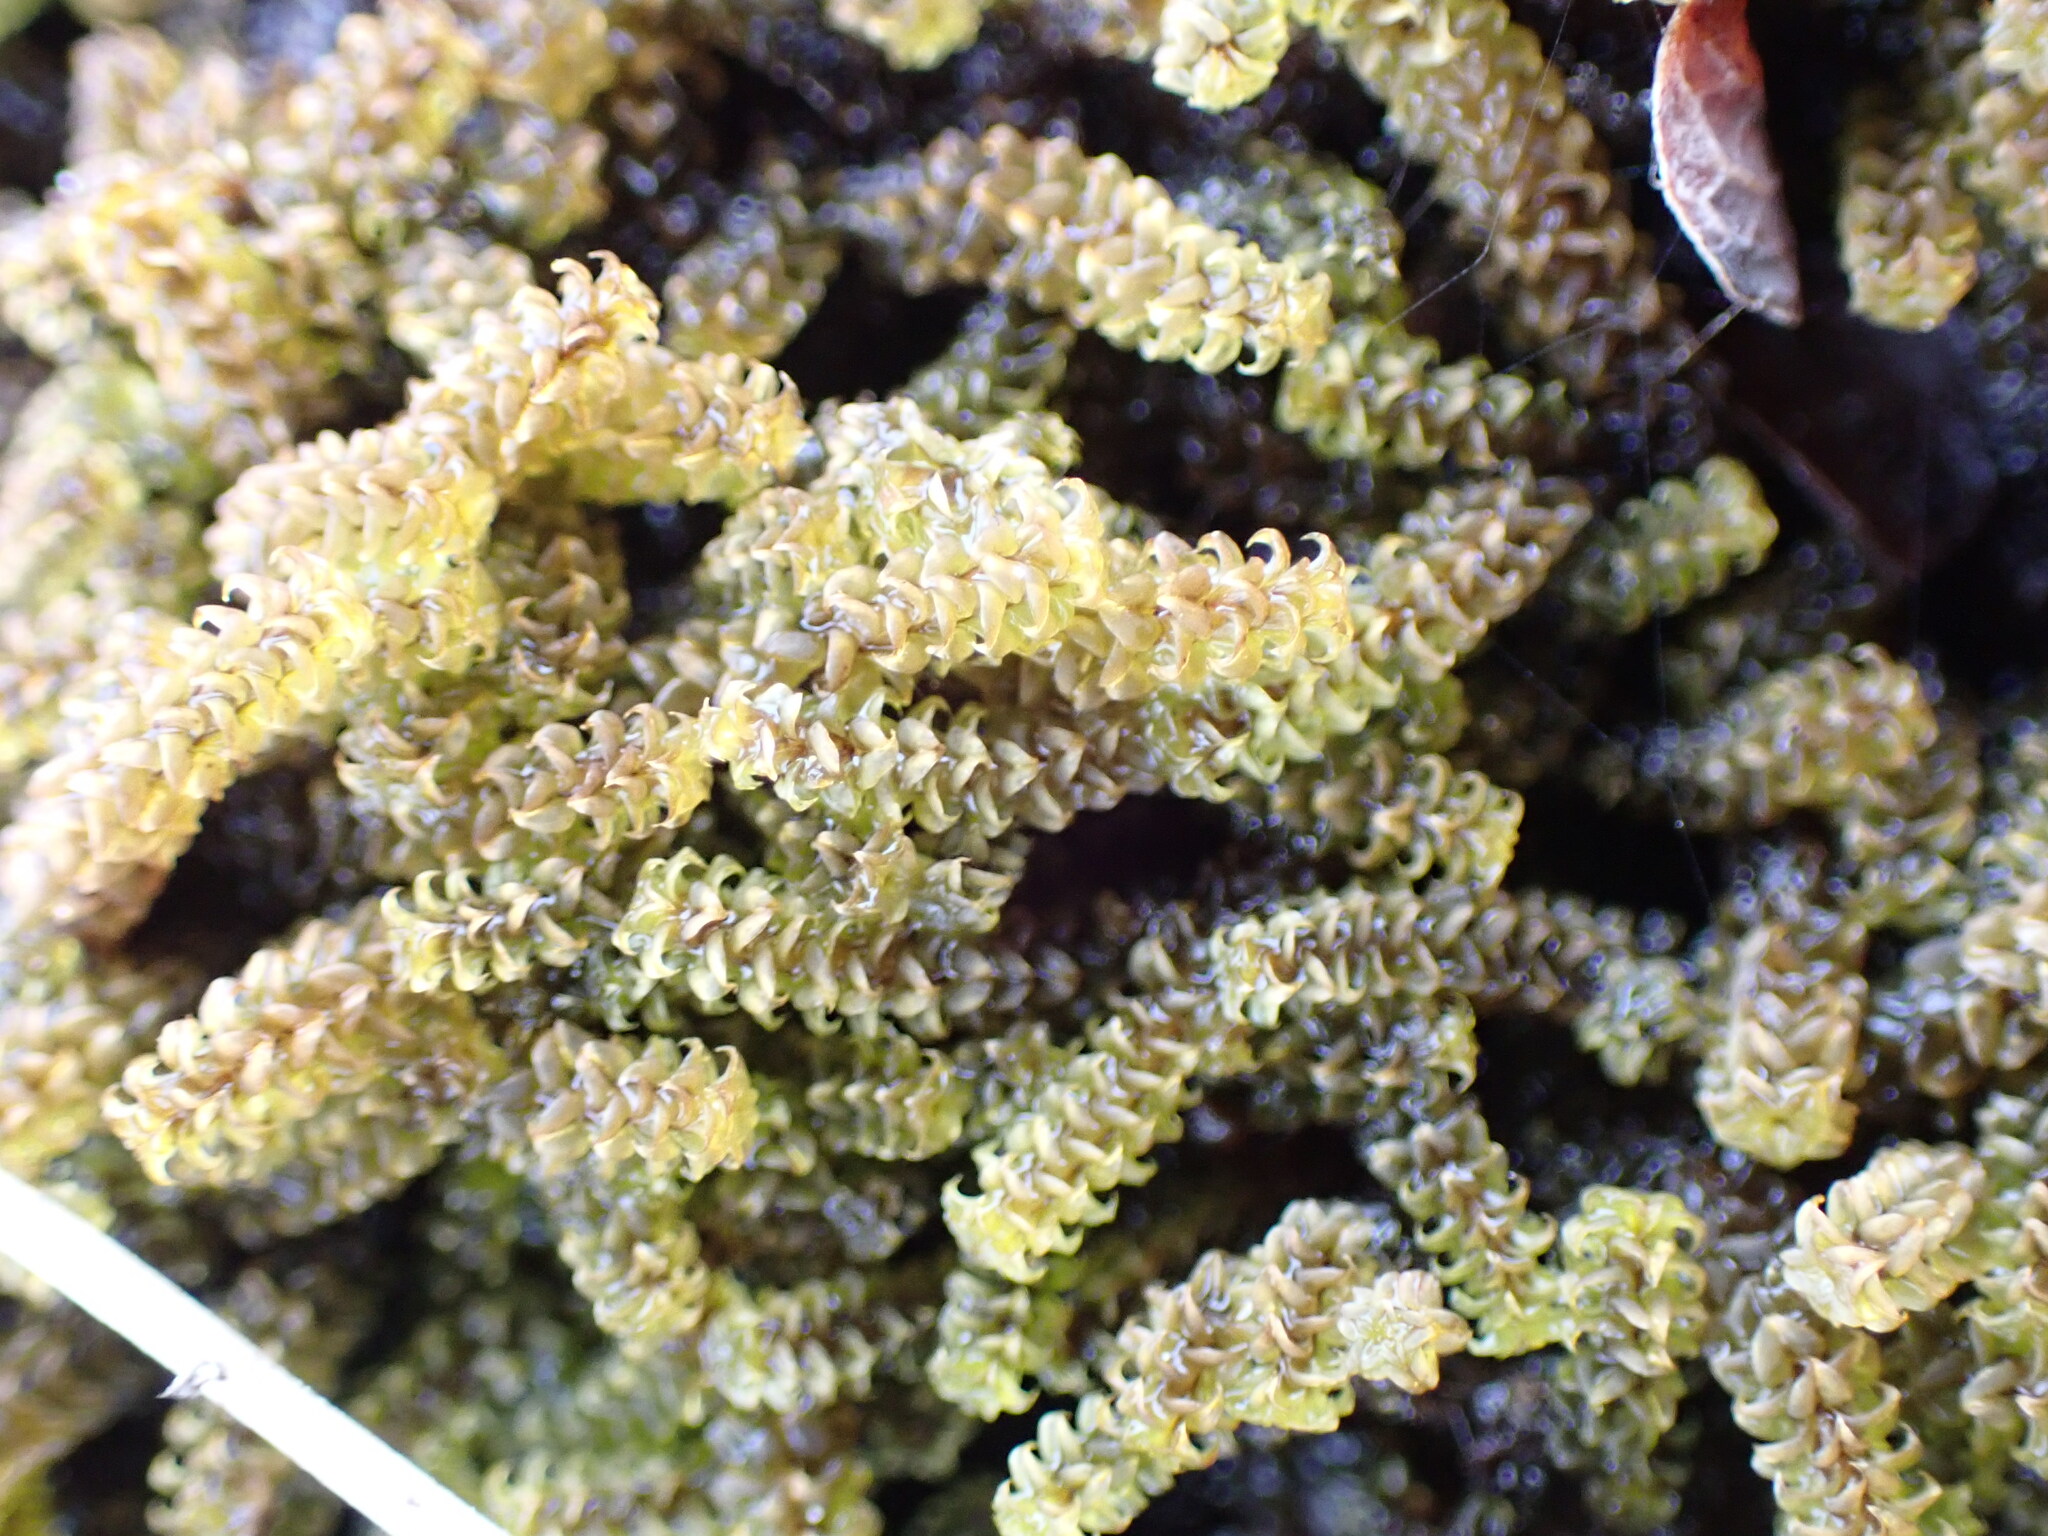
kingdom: Plantae
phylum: Bryophyta
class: Bryopsida
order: Splachnales
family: Meesiaceae
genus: Paludella
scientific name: Paludella squarrosa
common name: Tufted fen moss
